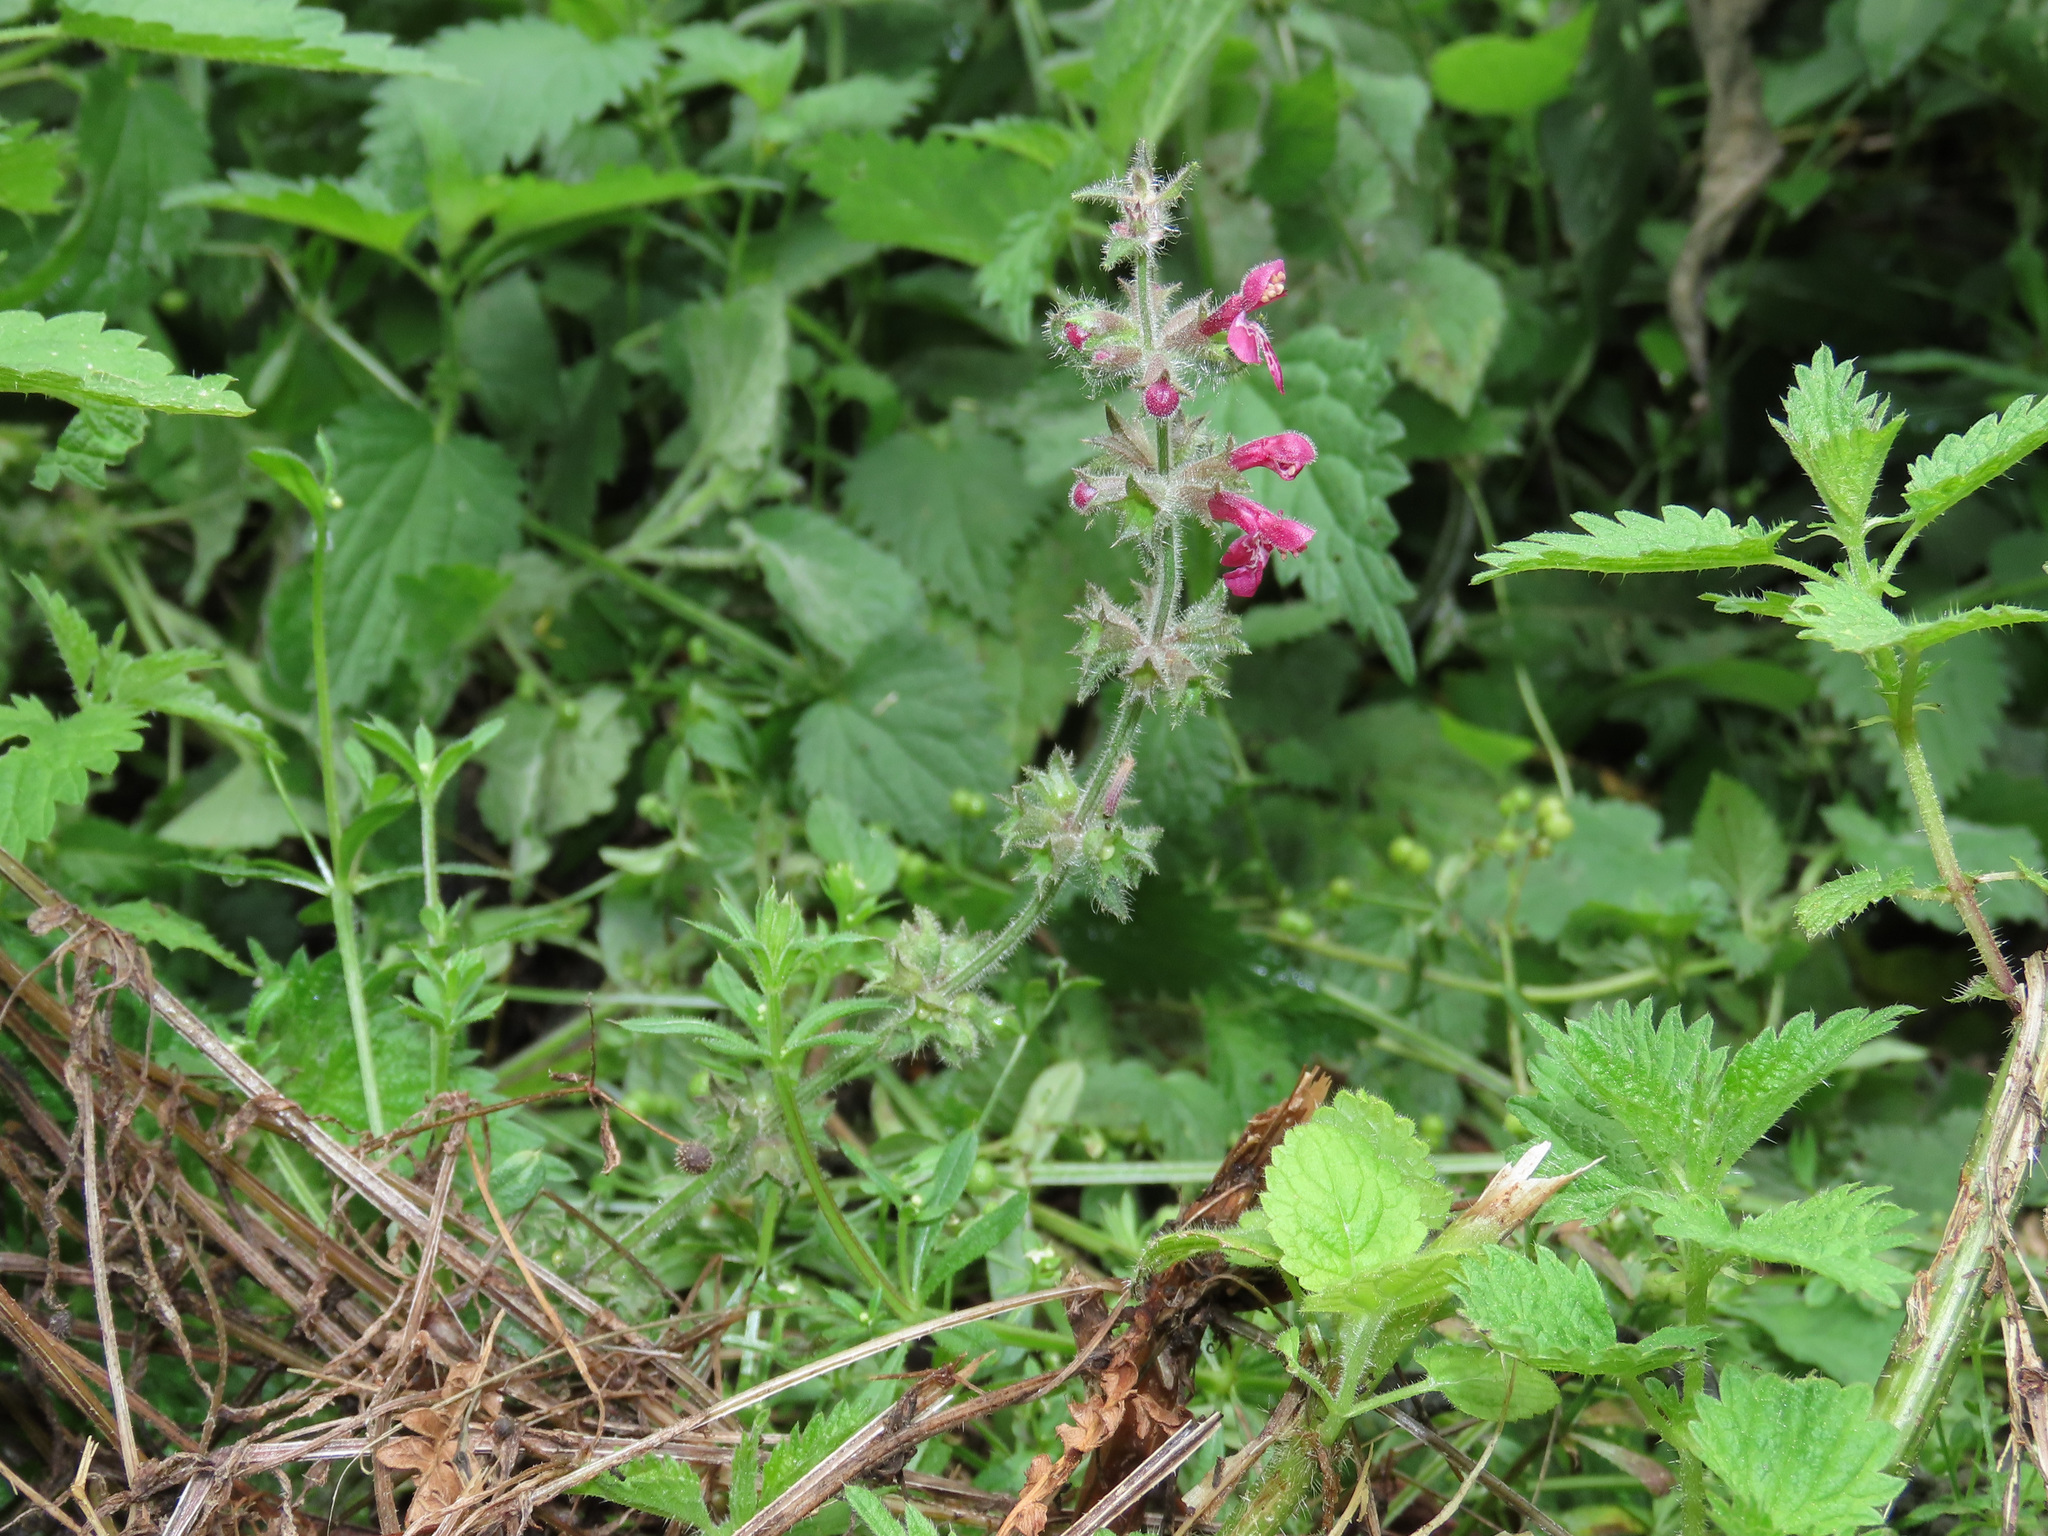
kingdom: Plantae
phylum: Tracheophyta
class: Magnoliopsida
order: Lamiales
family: Lamiaceae
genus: Stachys
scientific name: Stachys sylvatica
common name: Hedge woundwort
